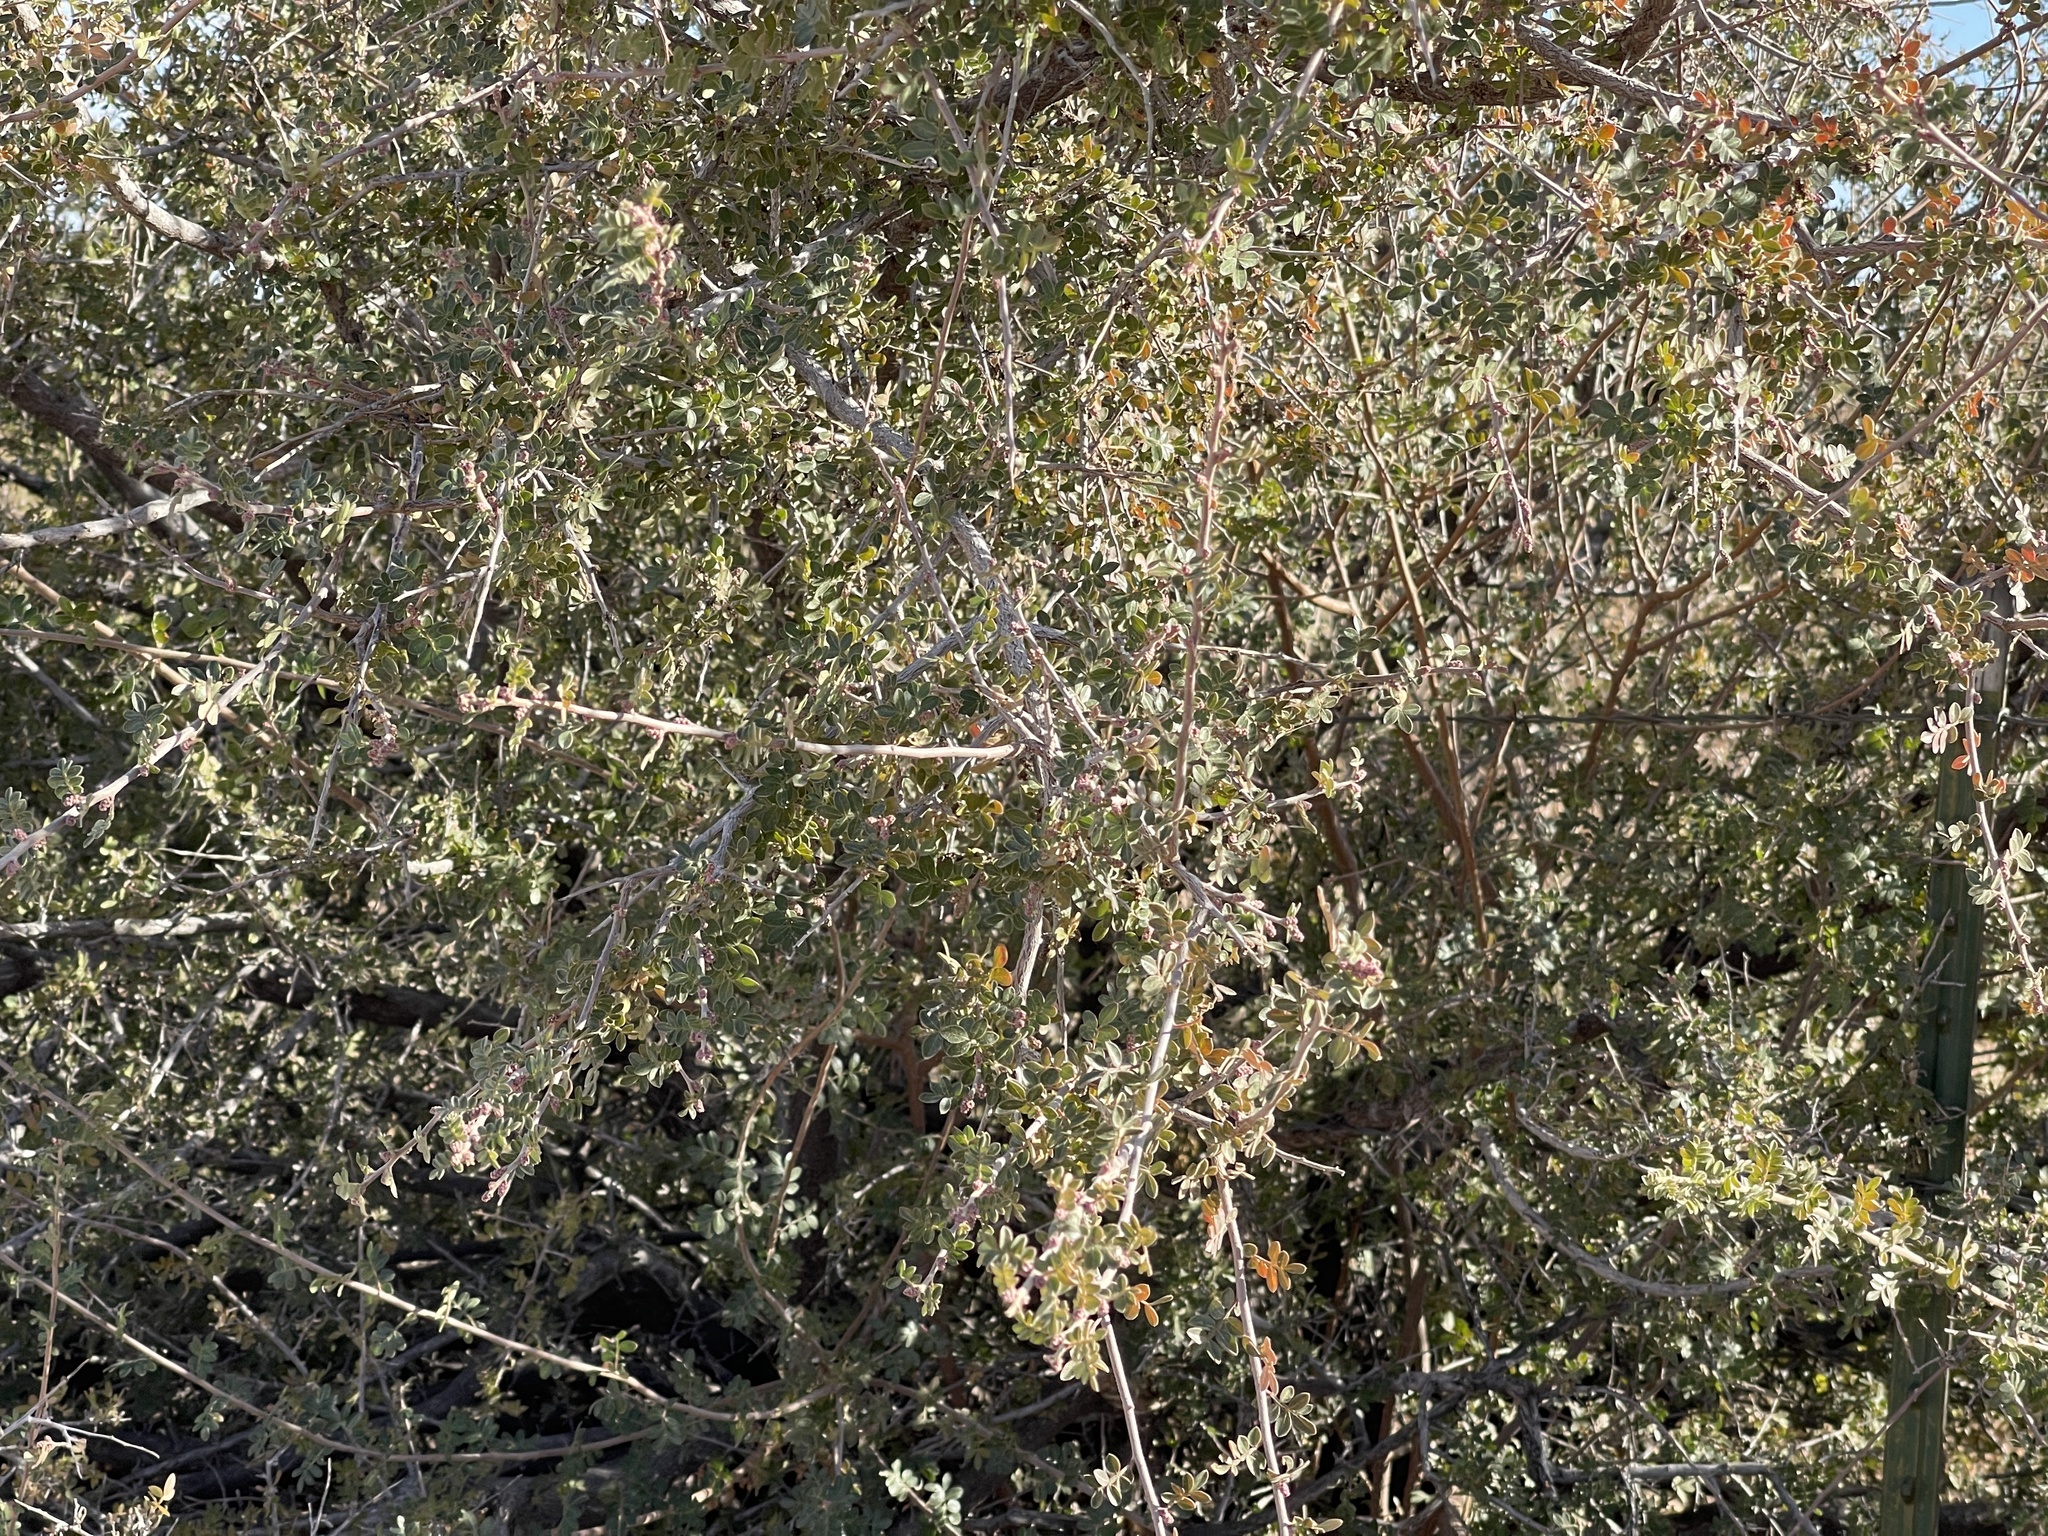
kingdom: Plantae
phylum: Tracheophyta
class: Magnoliopsida
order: Sapindales
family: Anacardiaceae
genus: Rhus
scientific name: Rhus microphylla
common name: Desert sumac
